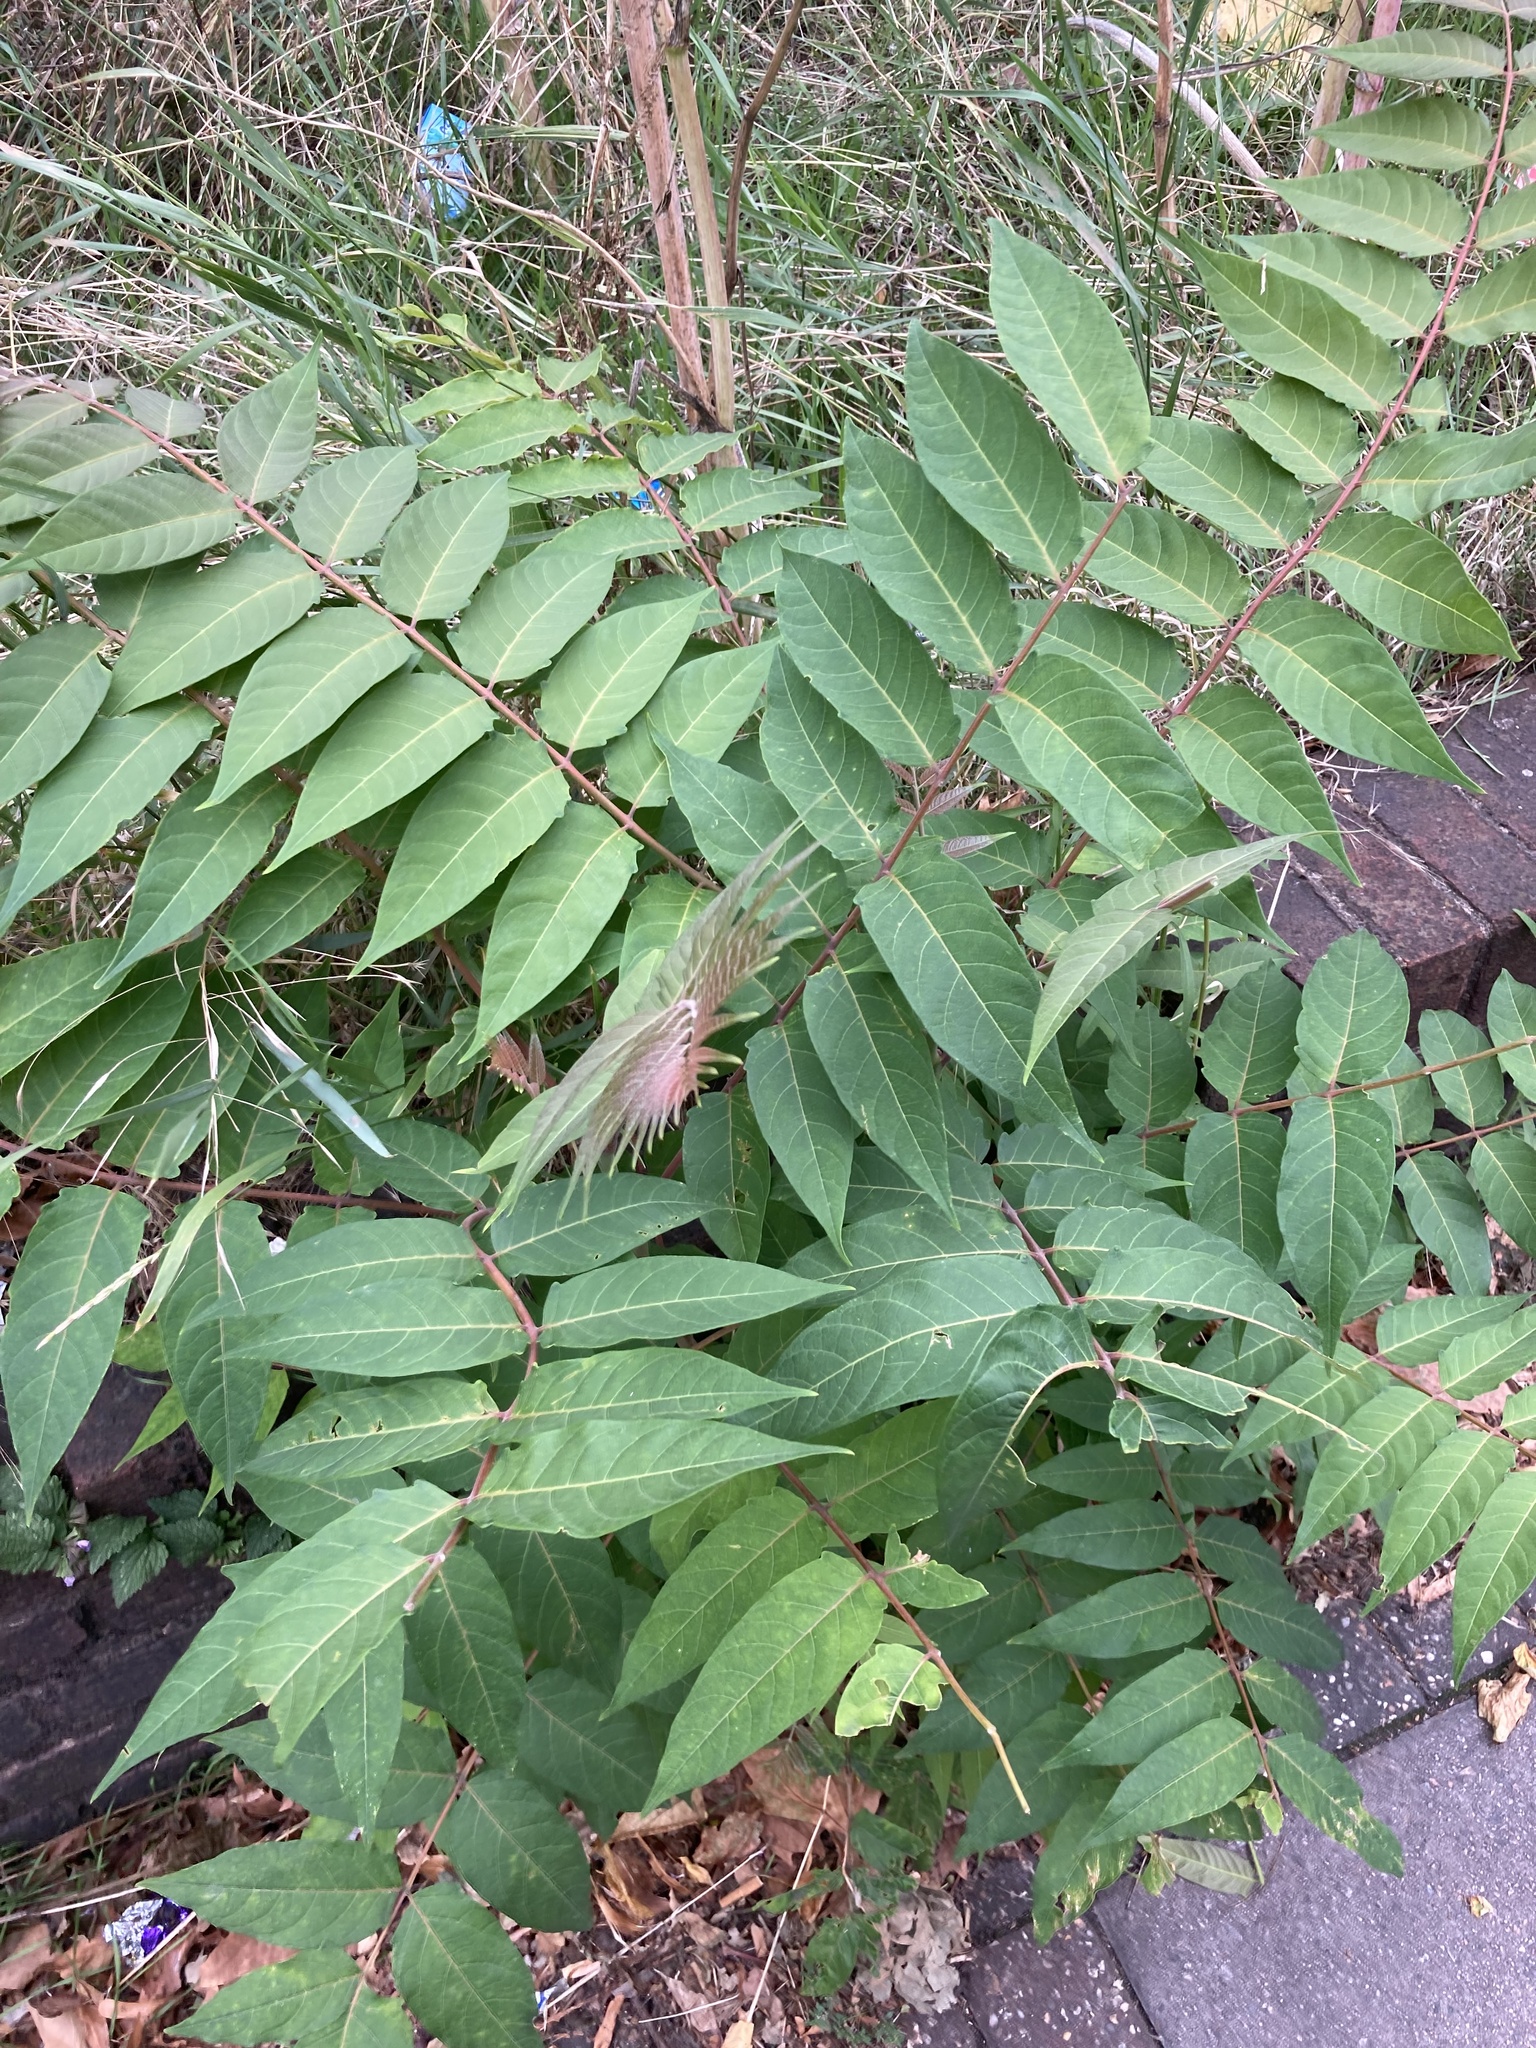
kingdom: Plantae
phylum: Tracheophyta
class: Magnoliopsida
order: Sapindales
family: Simaroubaceae
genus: Ailanthus
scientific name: Ailanthus altissima
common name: Tree-of-heaven
